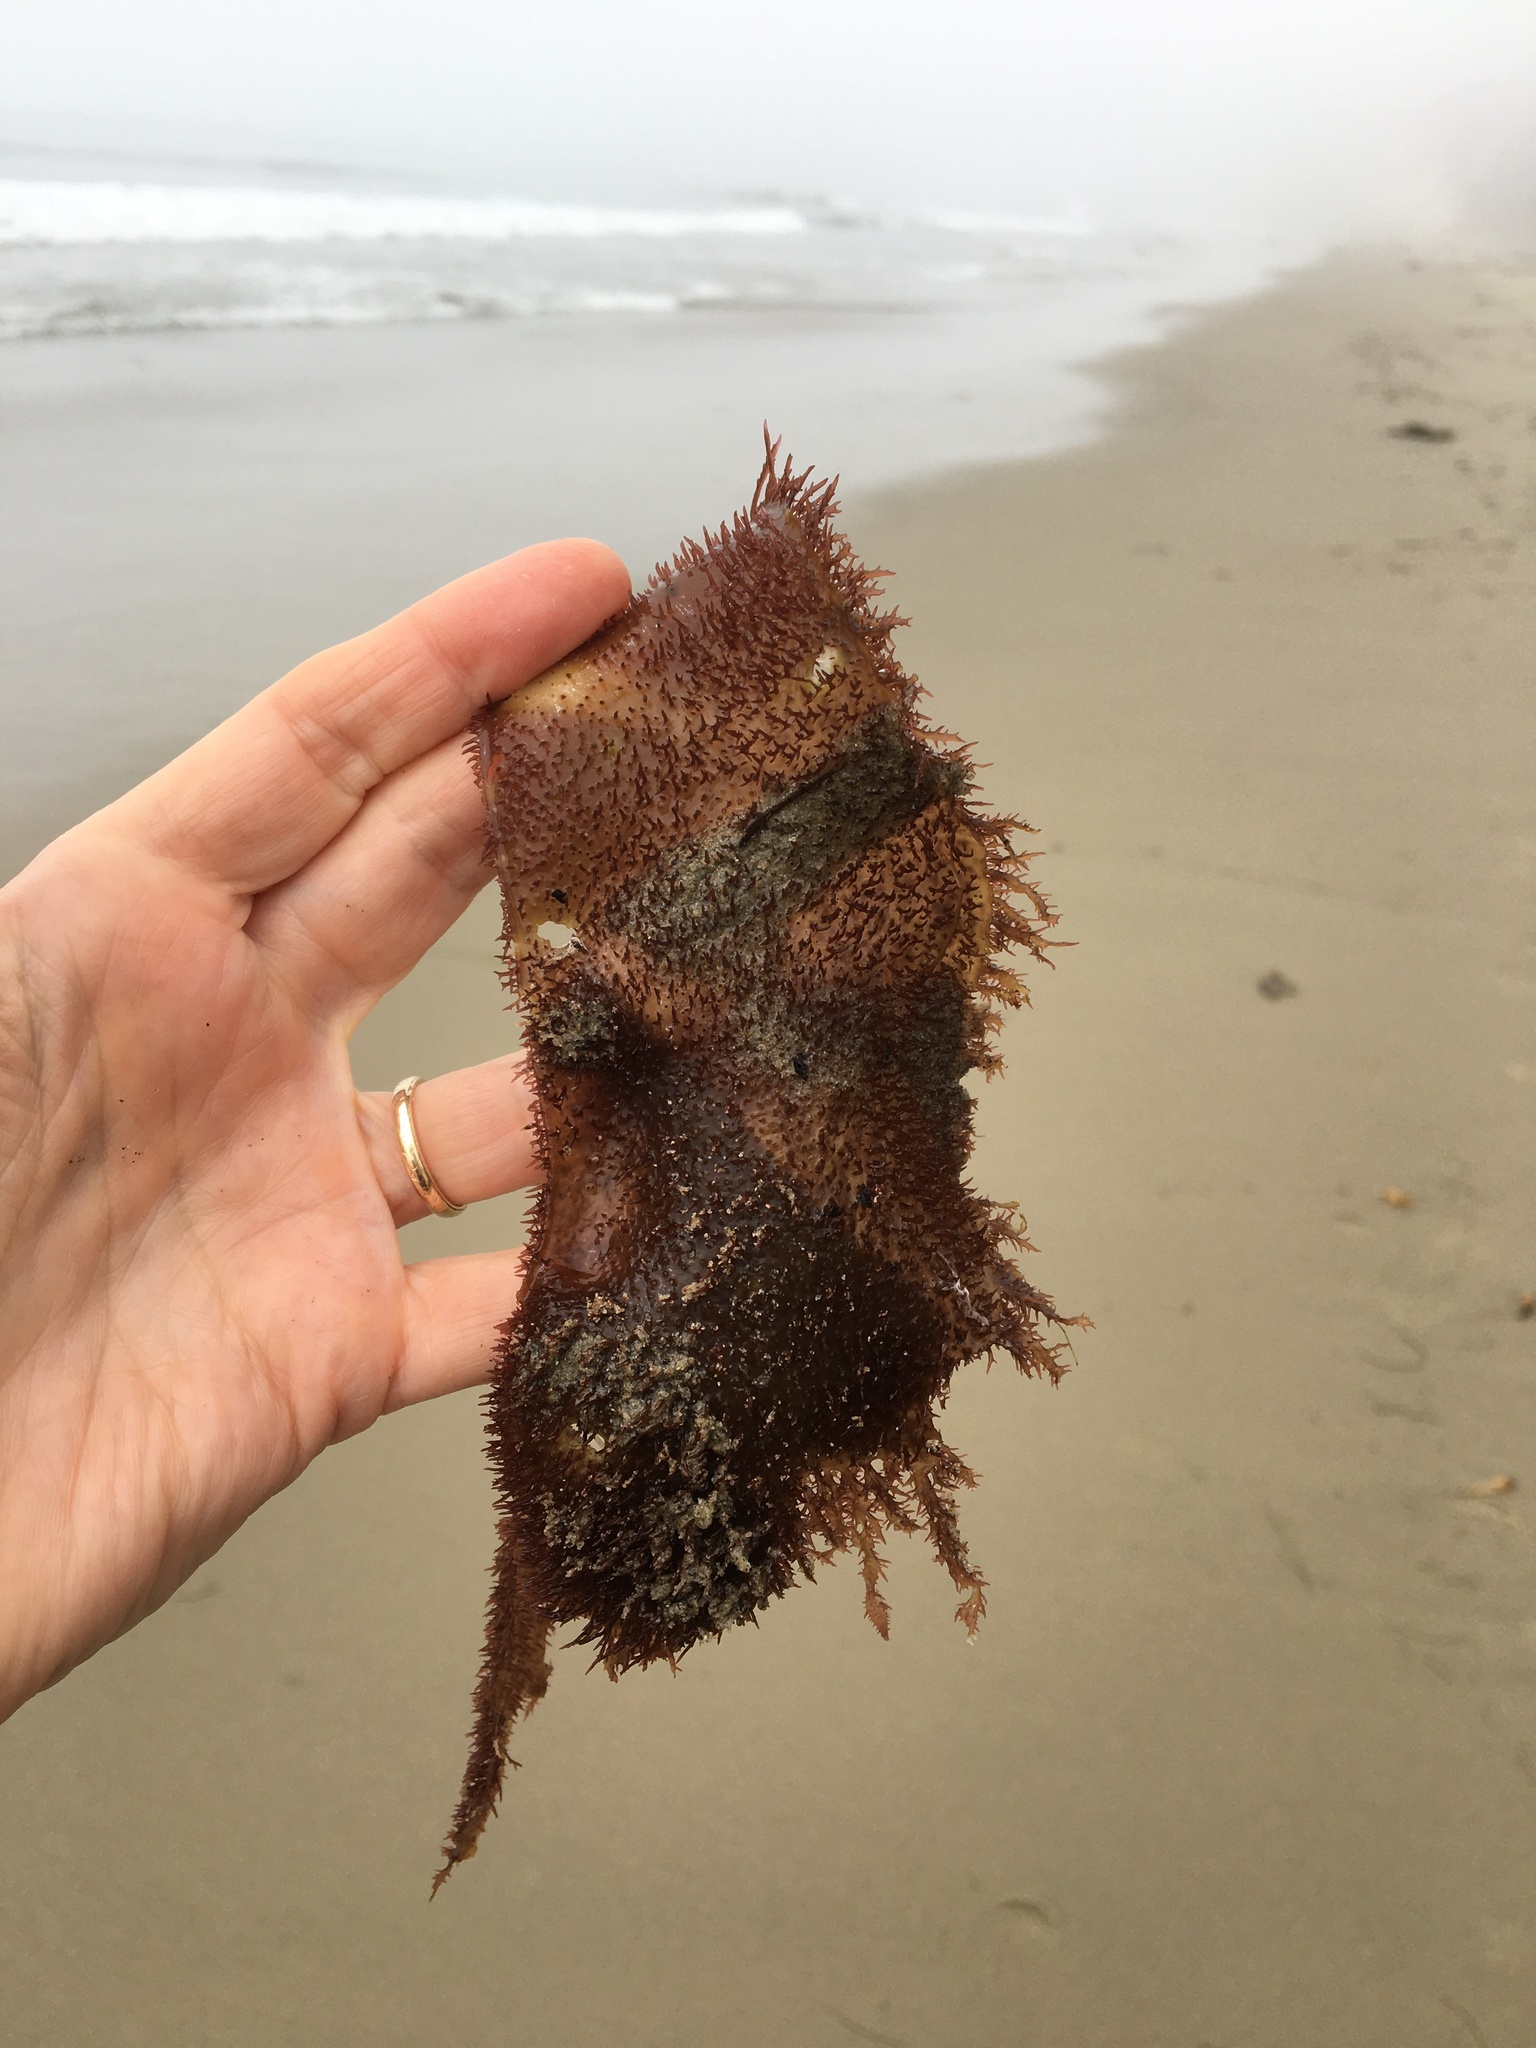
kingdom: Plantae
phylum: Rhodophyta
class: Florideophyceae
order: Gigartinales
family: Gigartinaceae
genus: Chondracanthus
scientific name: Chondracanthus exasperatus
